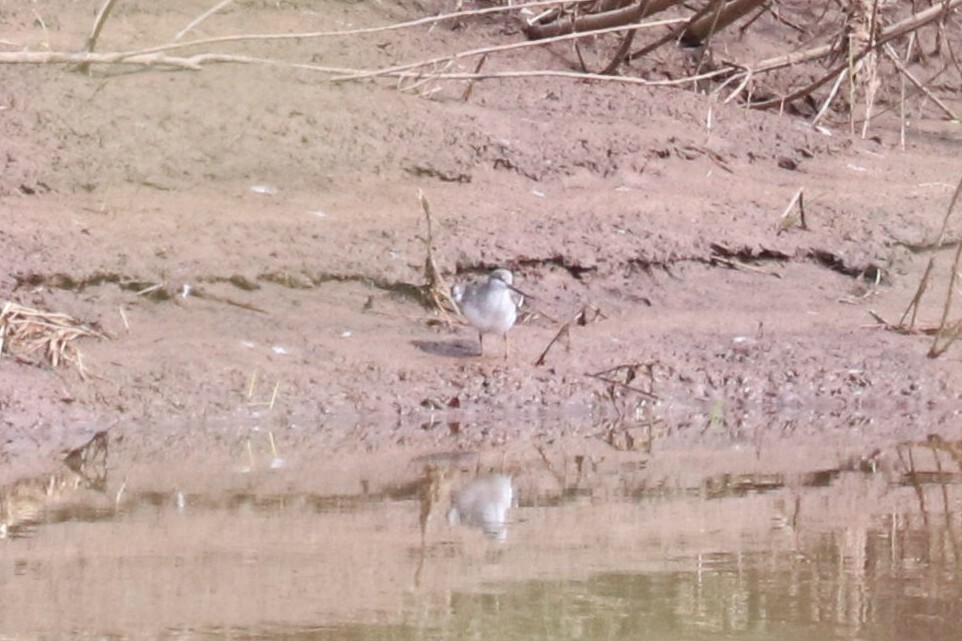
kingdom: Animalia
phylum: Chordata
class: Aves
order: Charadriiformes
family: Scolopacidae
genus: Xenus
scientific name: Xenus cinereus
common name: Terek sandpiper
